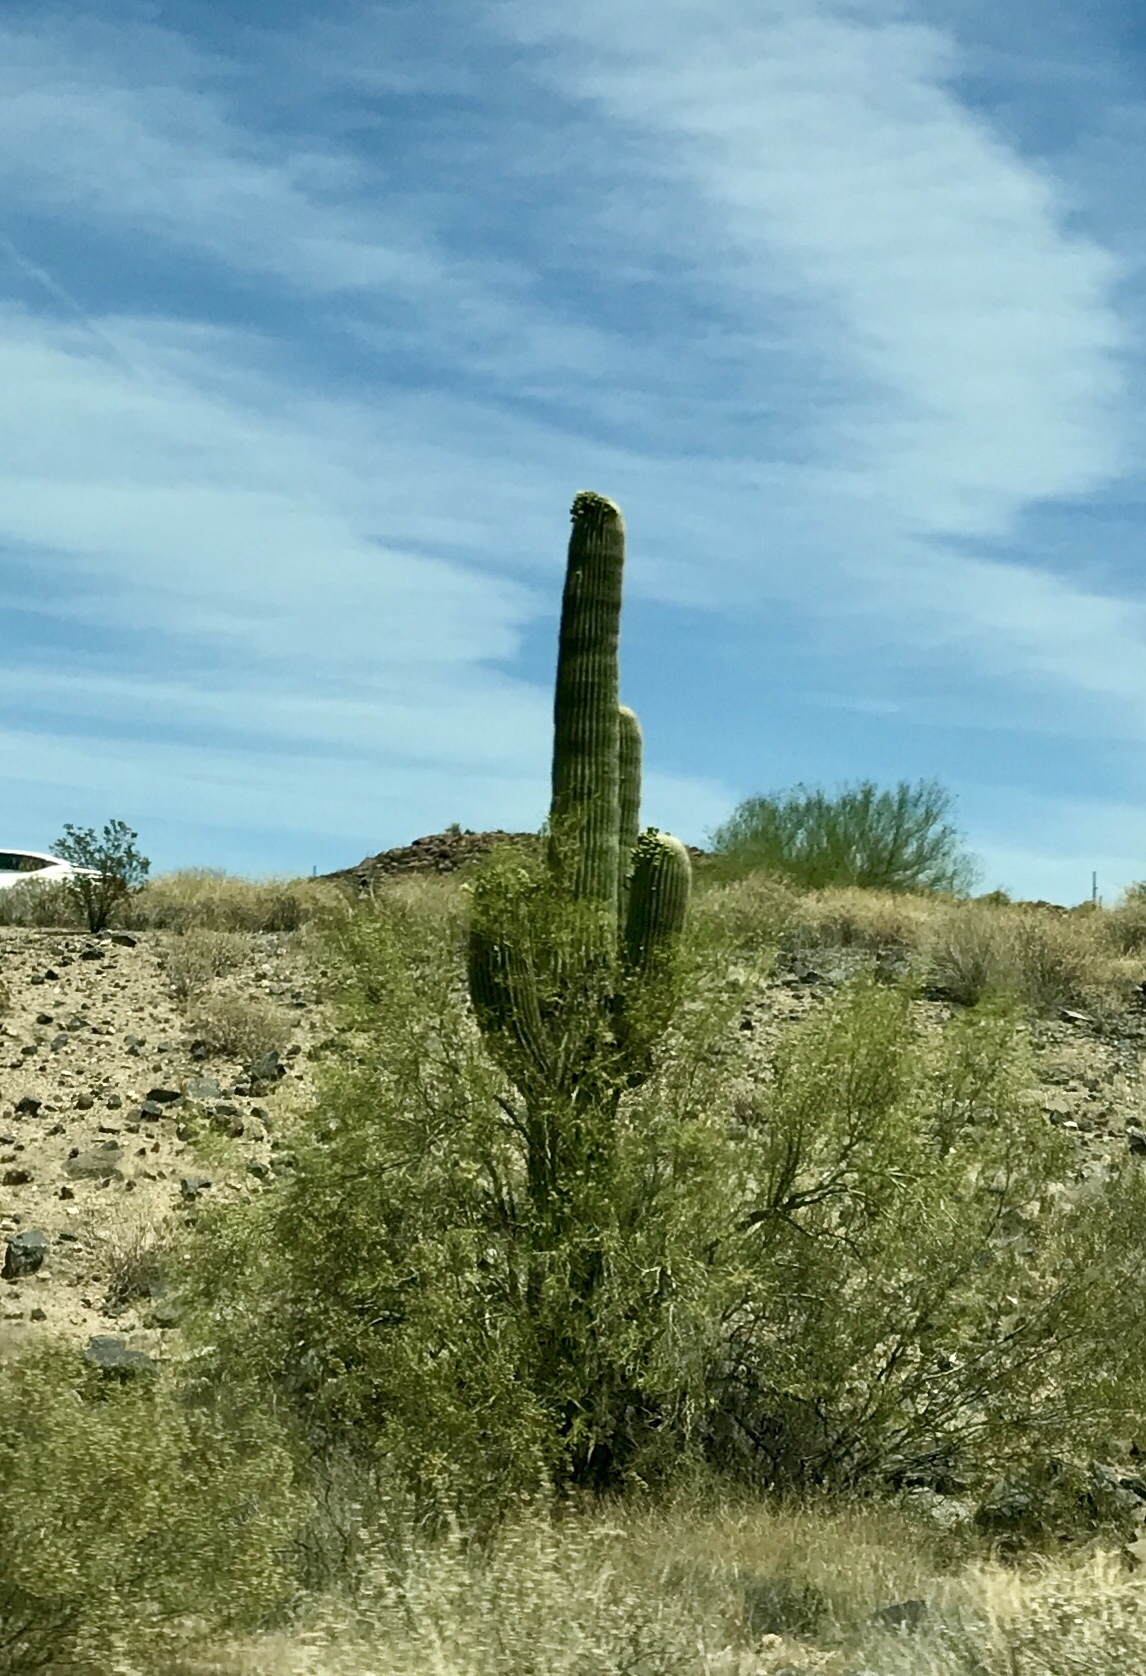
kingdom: Plantae
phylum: Tracheophyta
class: Magnoliopsida
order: Caryophyllales
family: Cactaceae
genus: Carnegiea
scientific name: Carnegiea gigantea
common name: Saguaro
